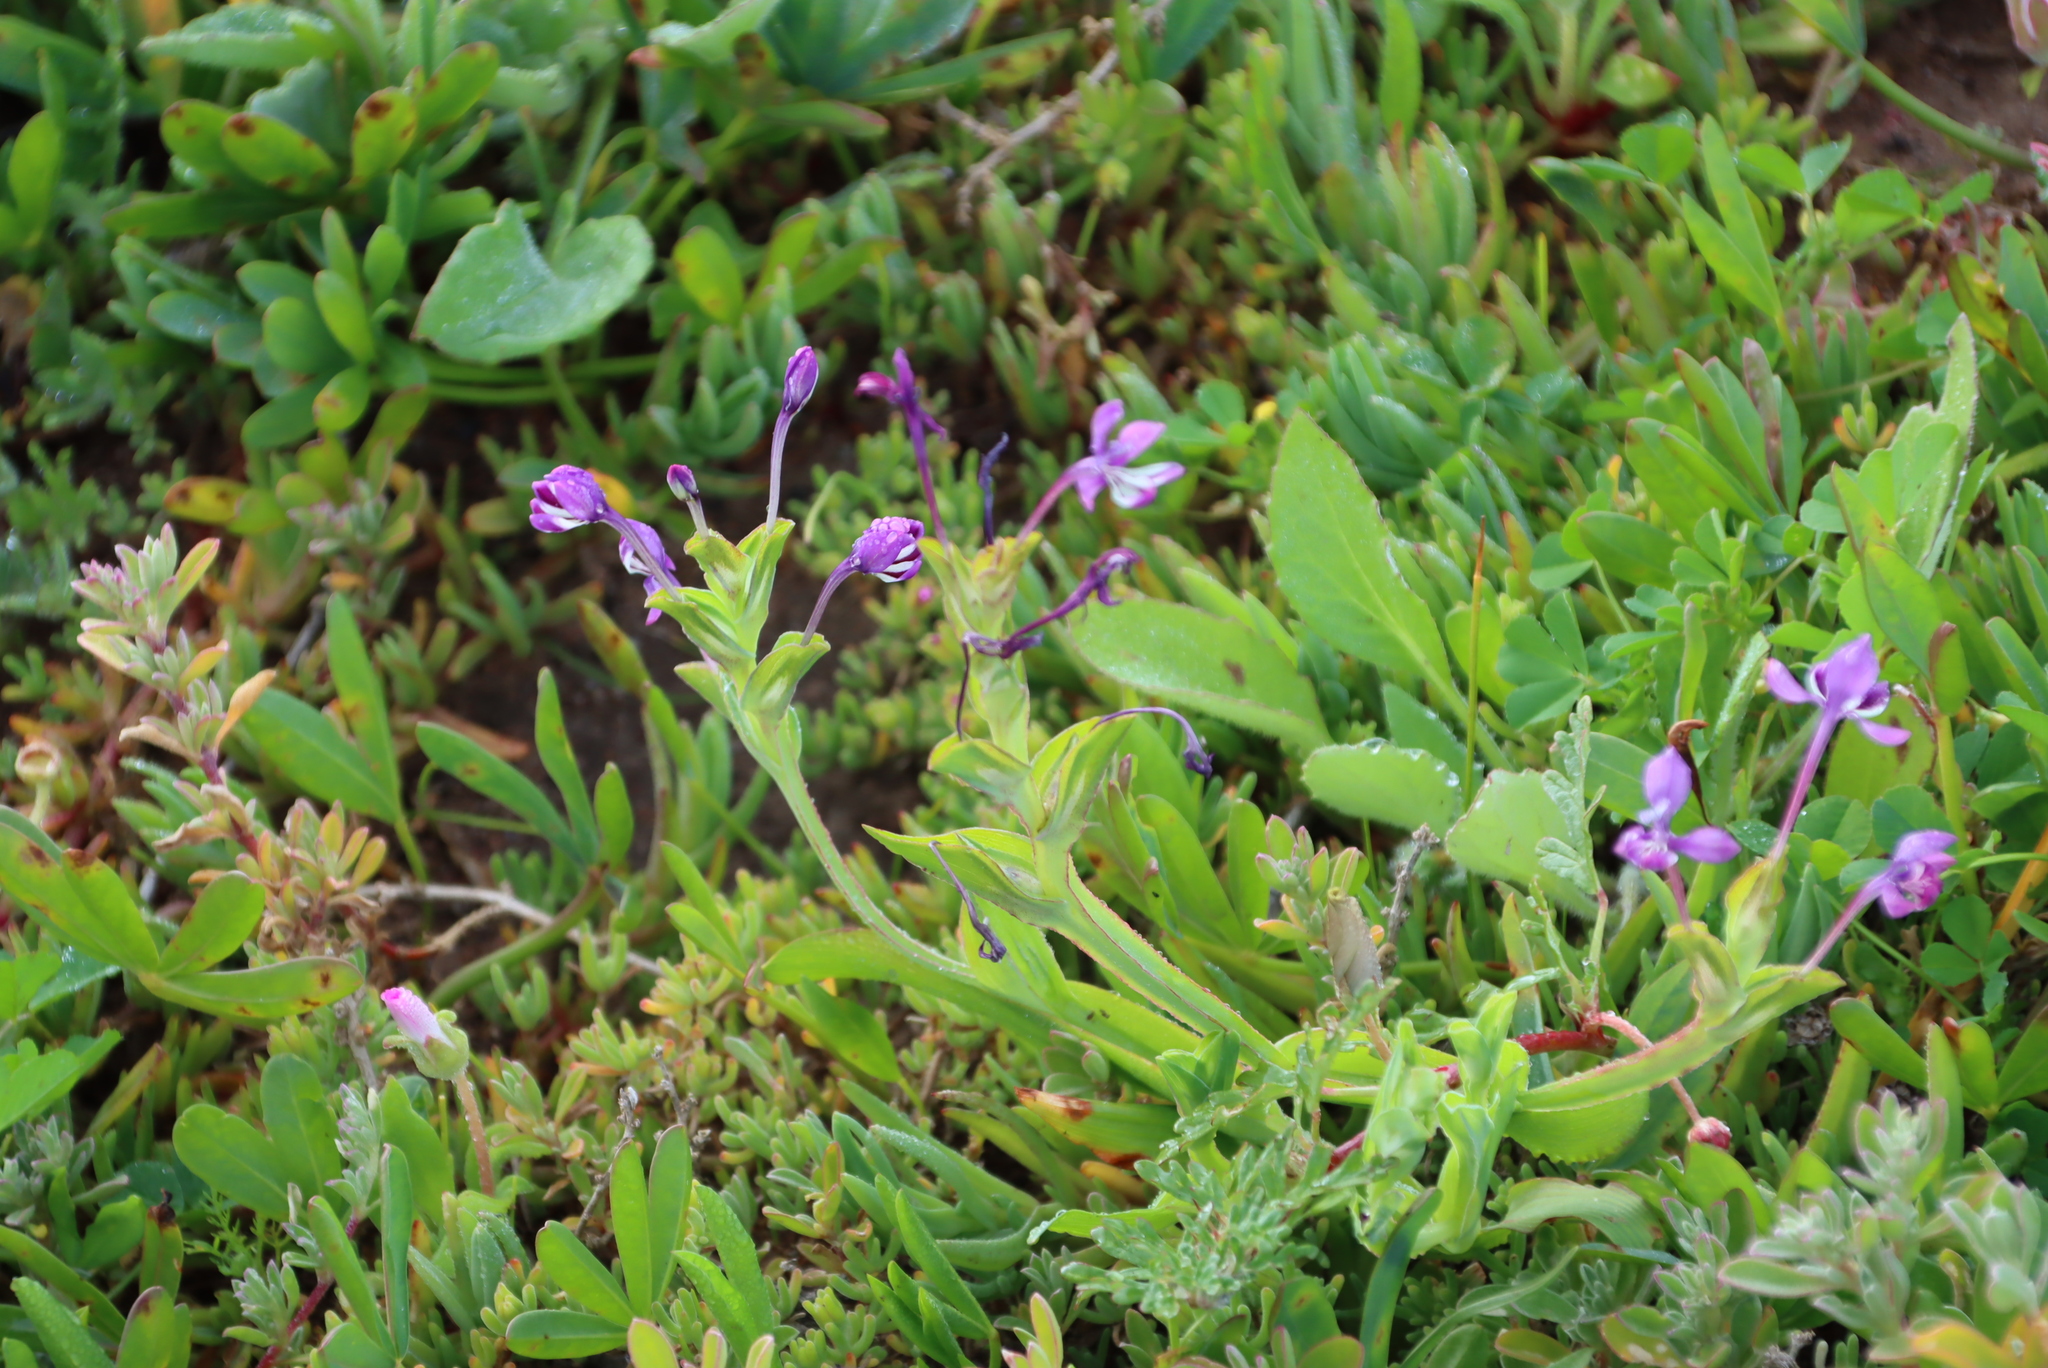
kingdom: Plantae
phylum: Tracheophyta
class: Liliopsida
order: Asparagales
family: Iridaceae
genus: Lapeirousia
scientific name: Lapeirousia jacquinii
